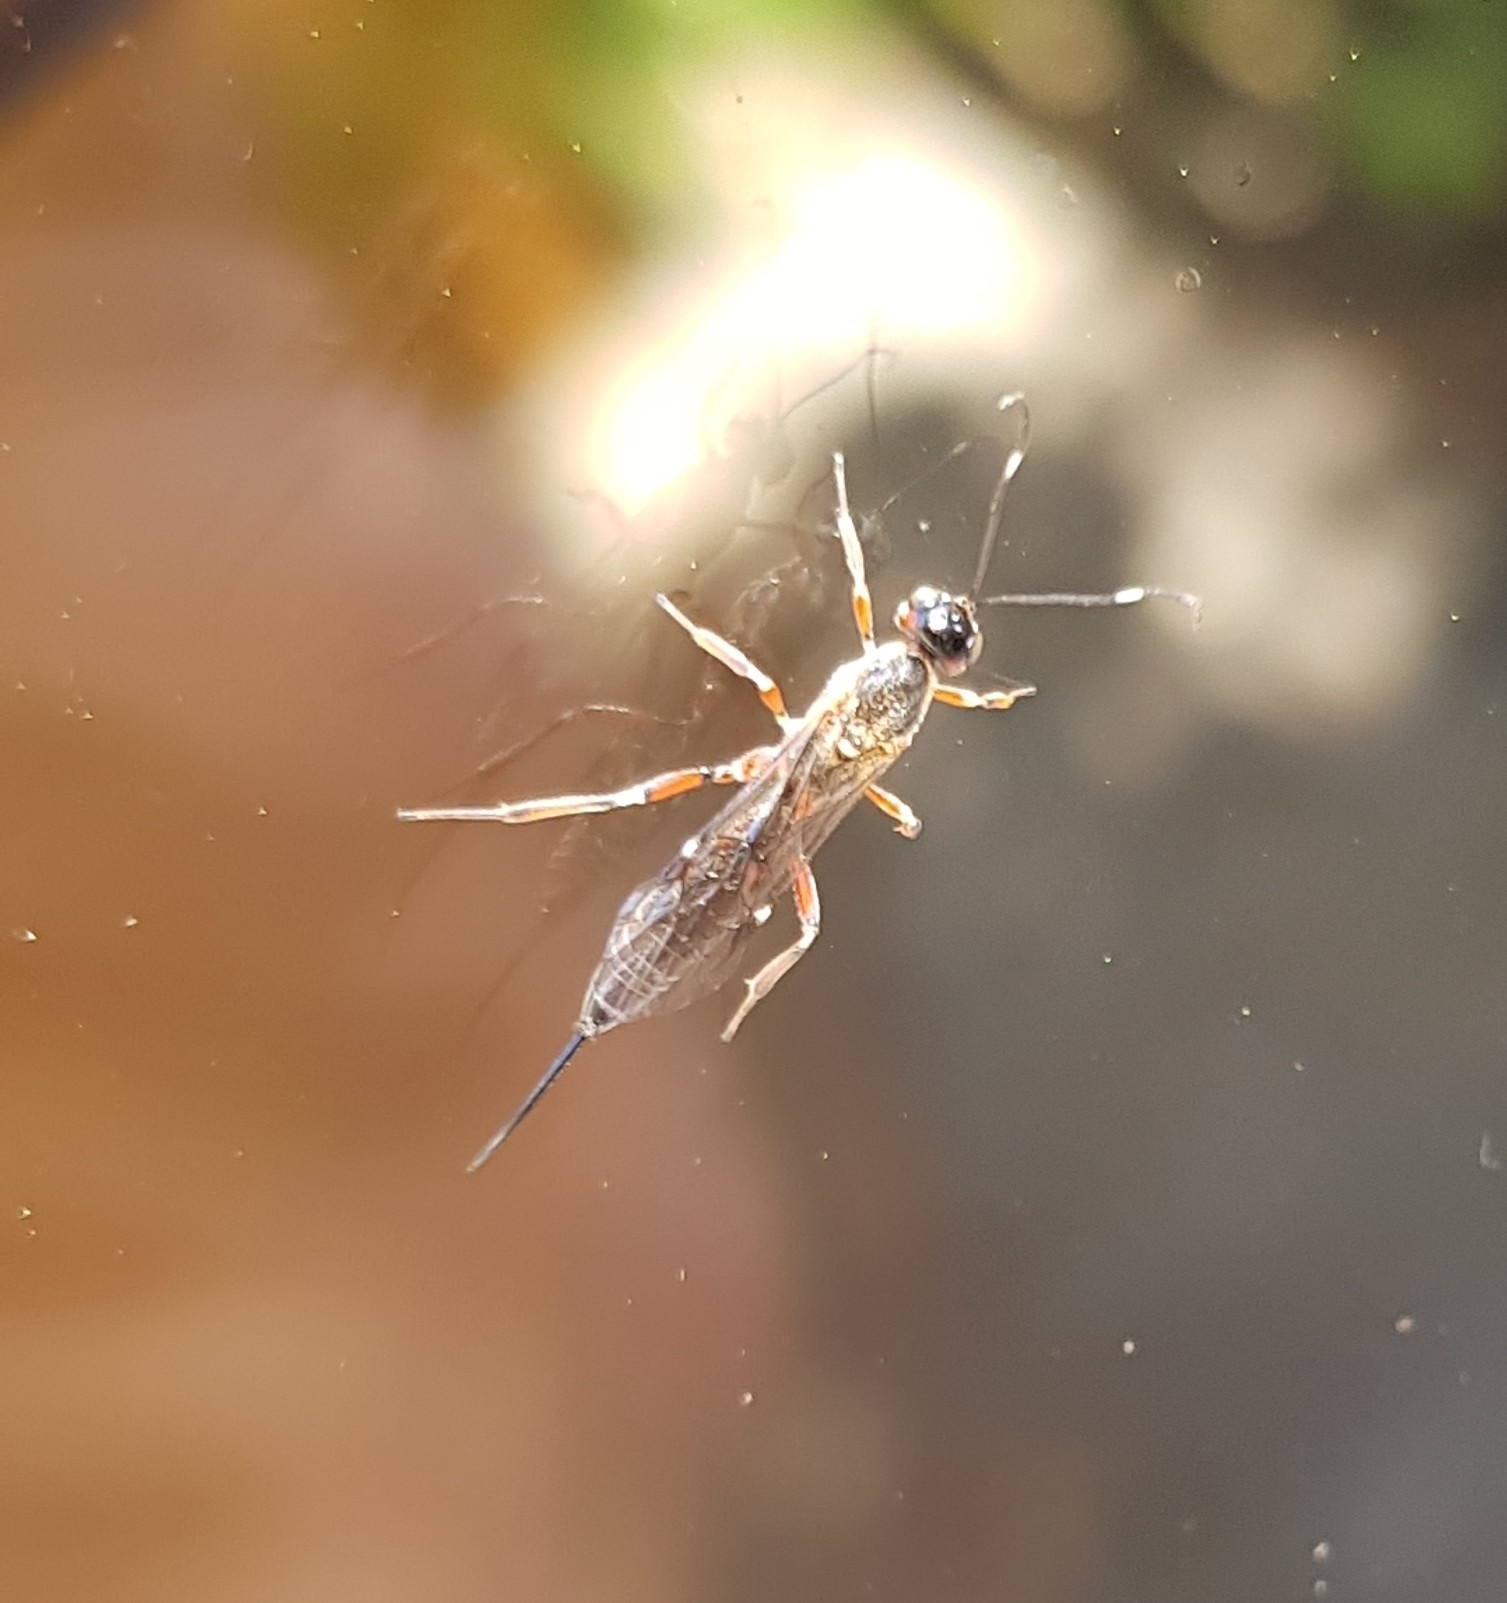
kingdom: Animalia
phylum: Arthropoda
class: Insecta
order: Hymenoptera
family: Ichneumonidae
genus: Xorides
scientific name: Xorides praecatorius
